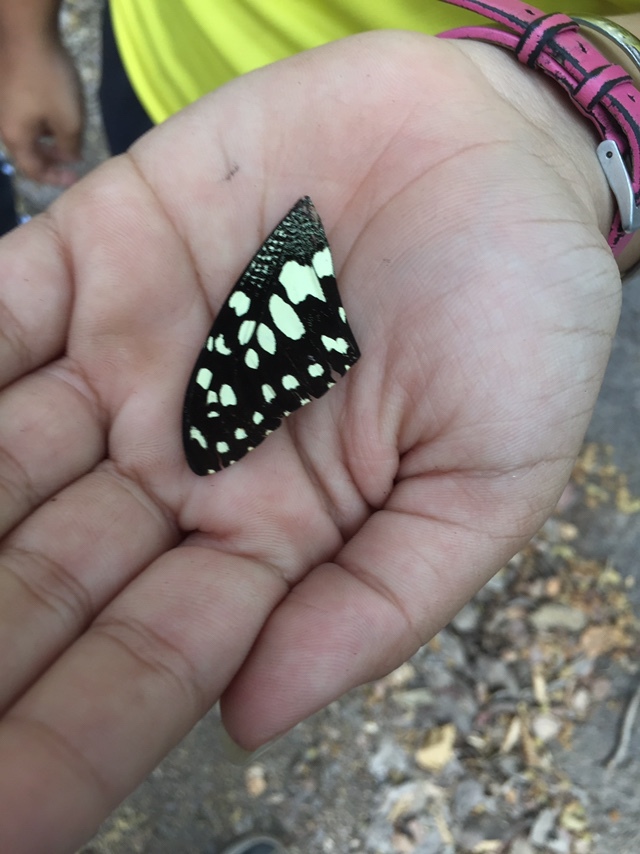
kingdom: Animalia
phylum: Arthropoda
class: Insecta
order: Lepidoptera
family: Papilionidae
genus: Papilio
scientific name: Papilio demoleus
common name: Lime butterfly
